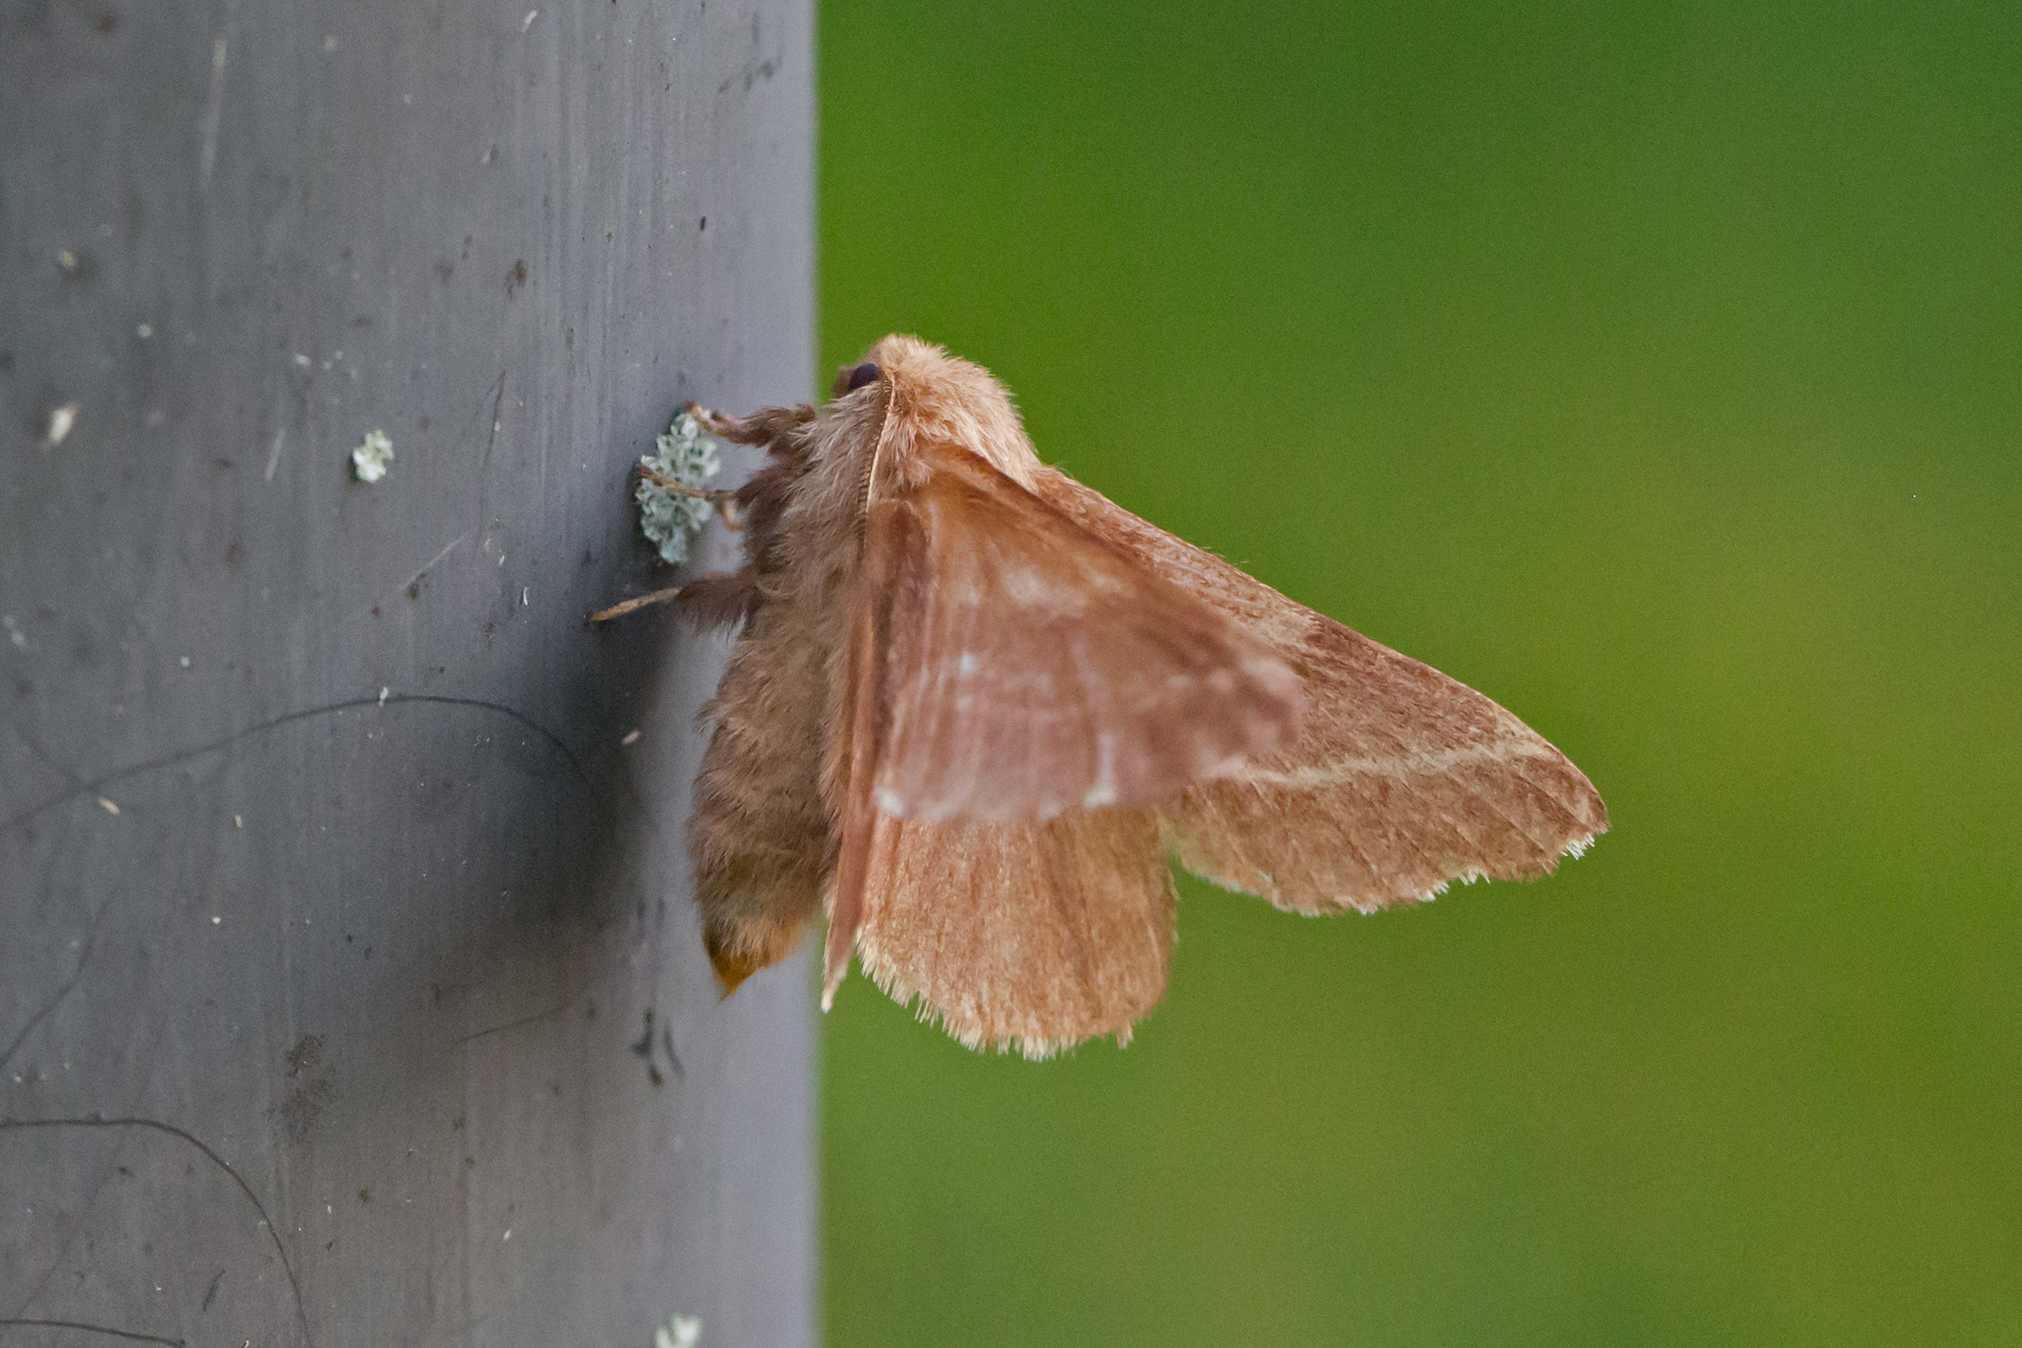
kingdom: Animalia
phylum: Arthropoda
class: Insecta
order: Lepidoptera
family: Lasiocampidae
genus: Malacosoma
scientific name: Malacosoma americana
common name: Eastern tent caterpillar moth
